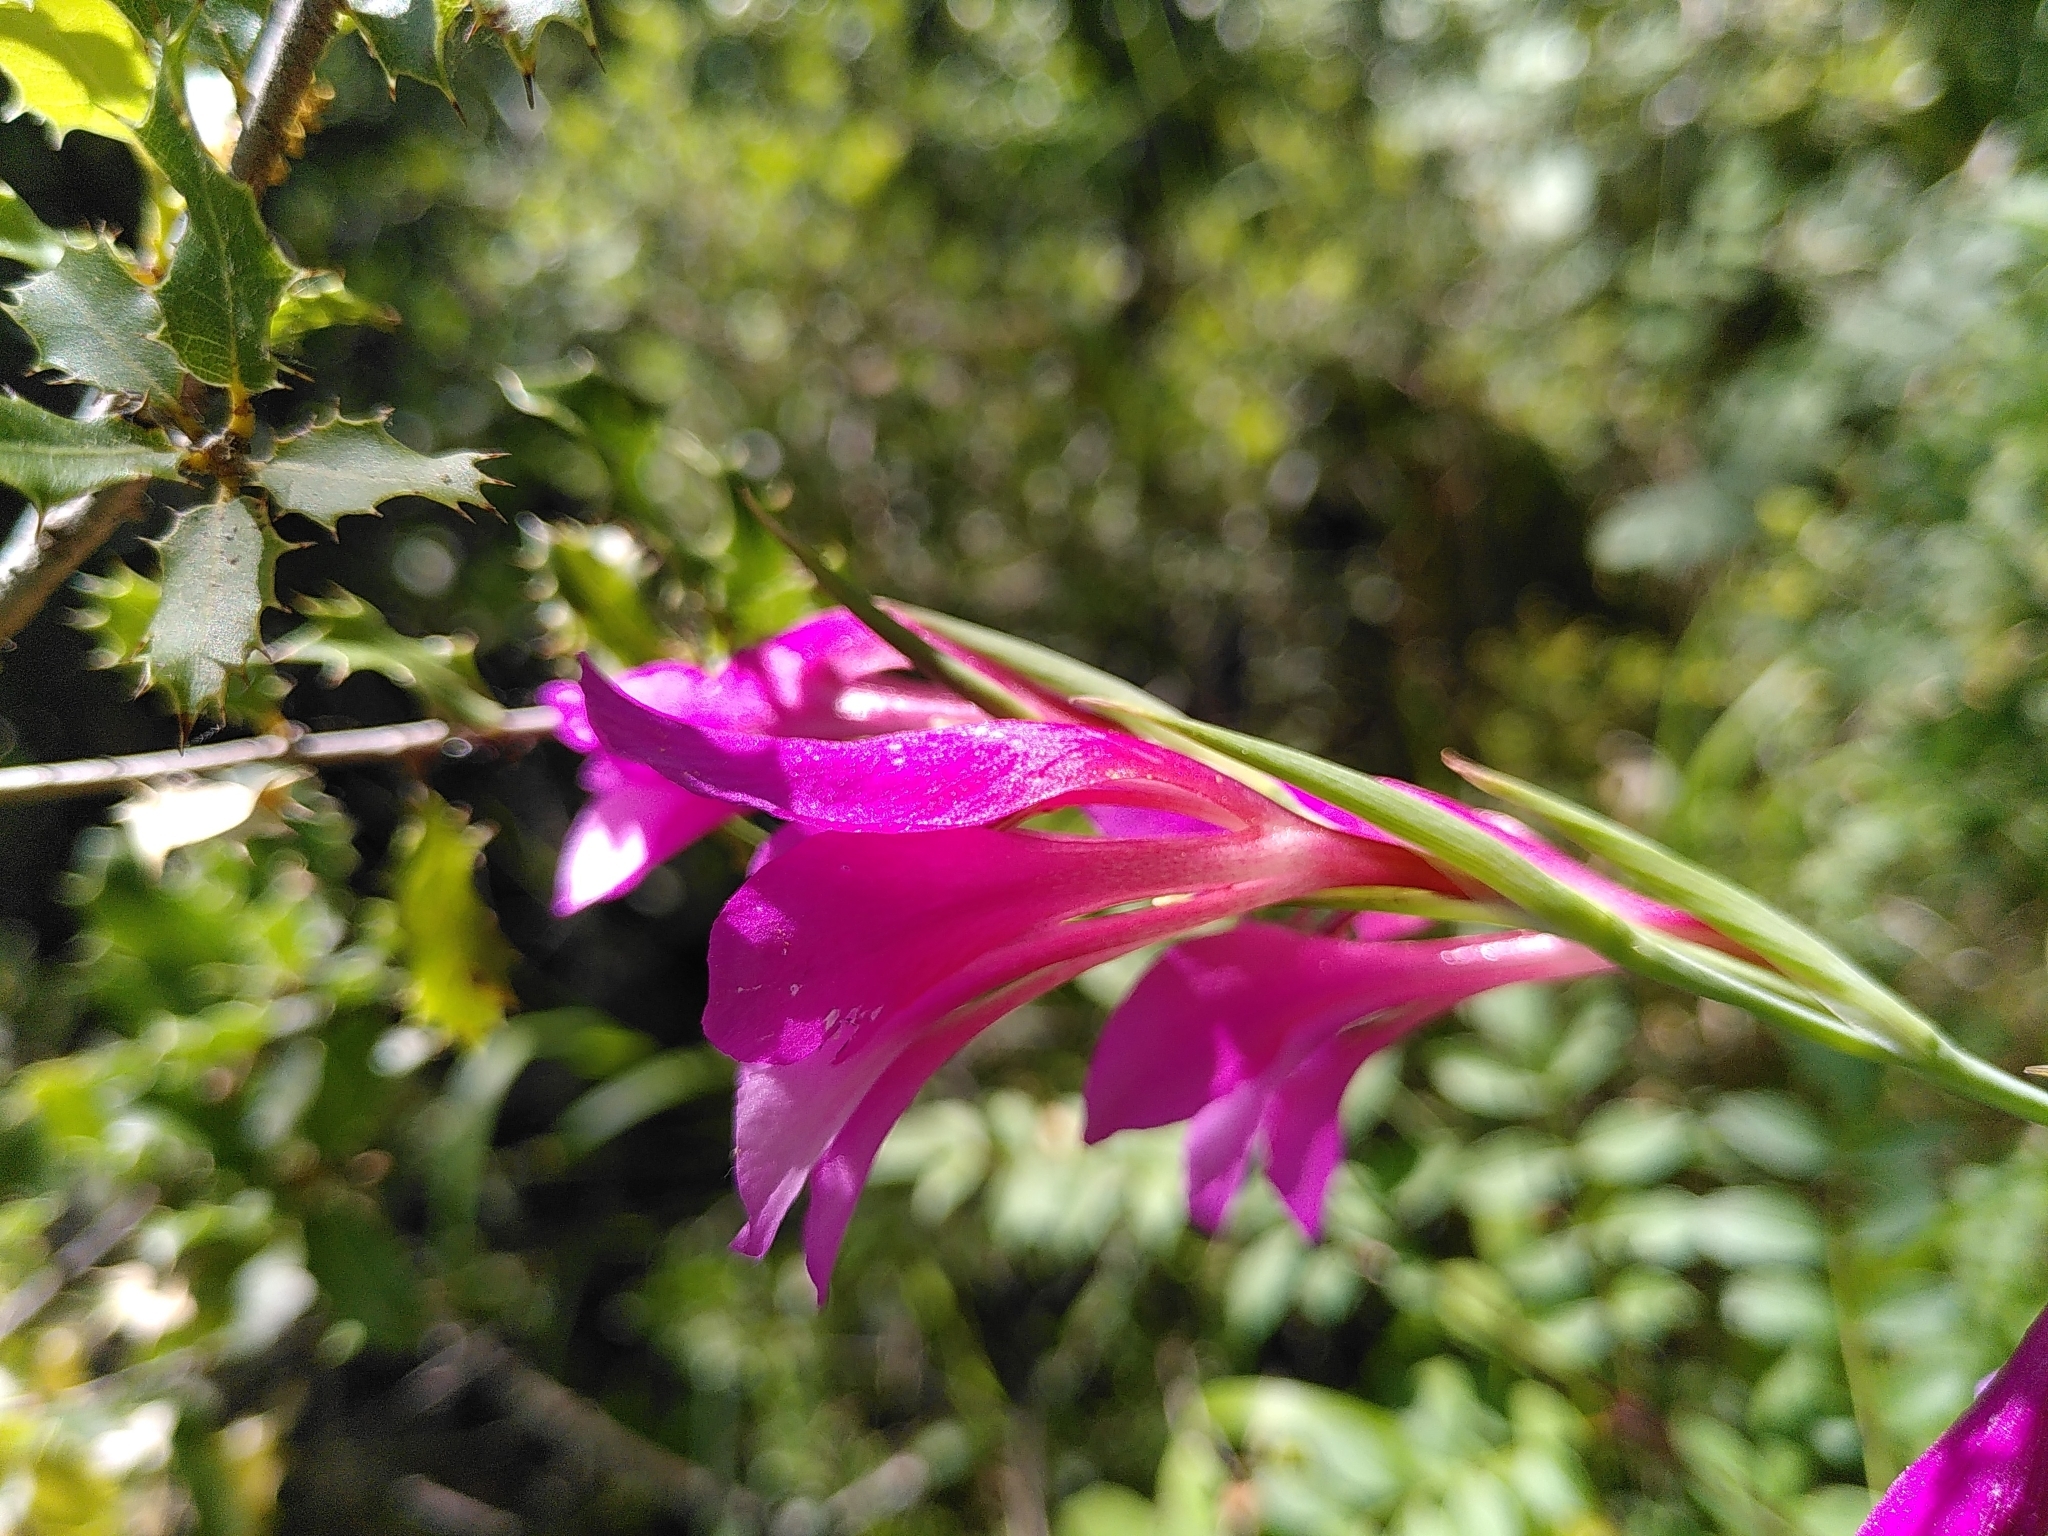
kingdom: Plantae
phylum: Tracheophyta
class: Liliopsida
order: Asparagales
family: Iridaceae
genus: Gladiolus
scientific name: Gladiolus dubius
